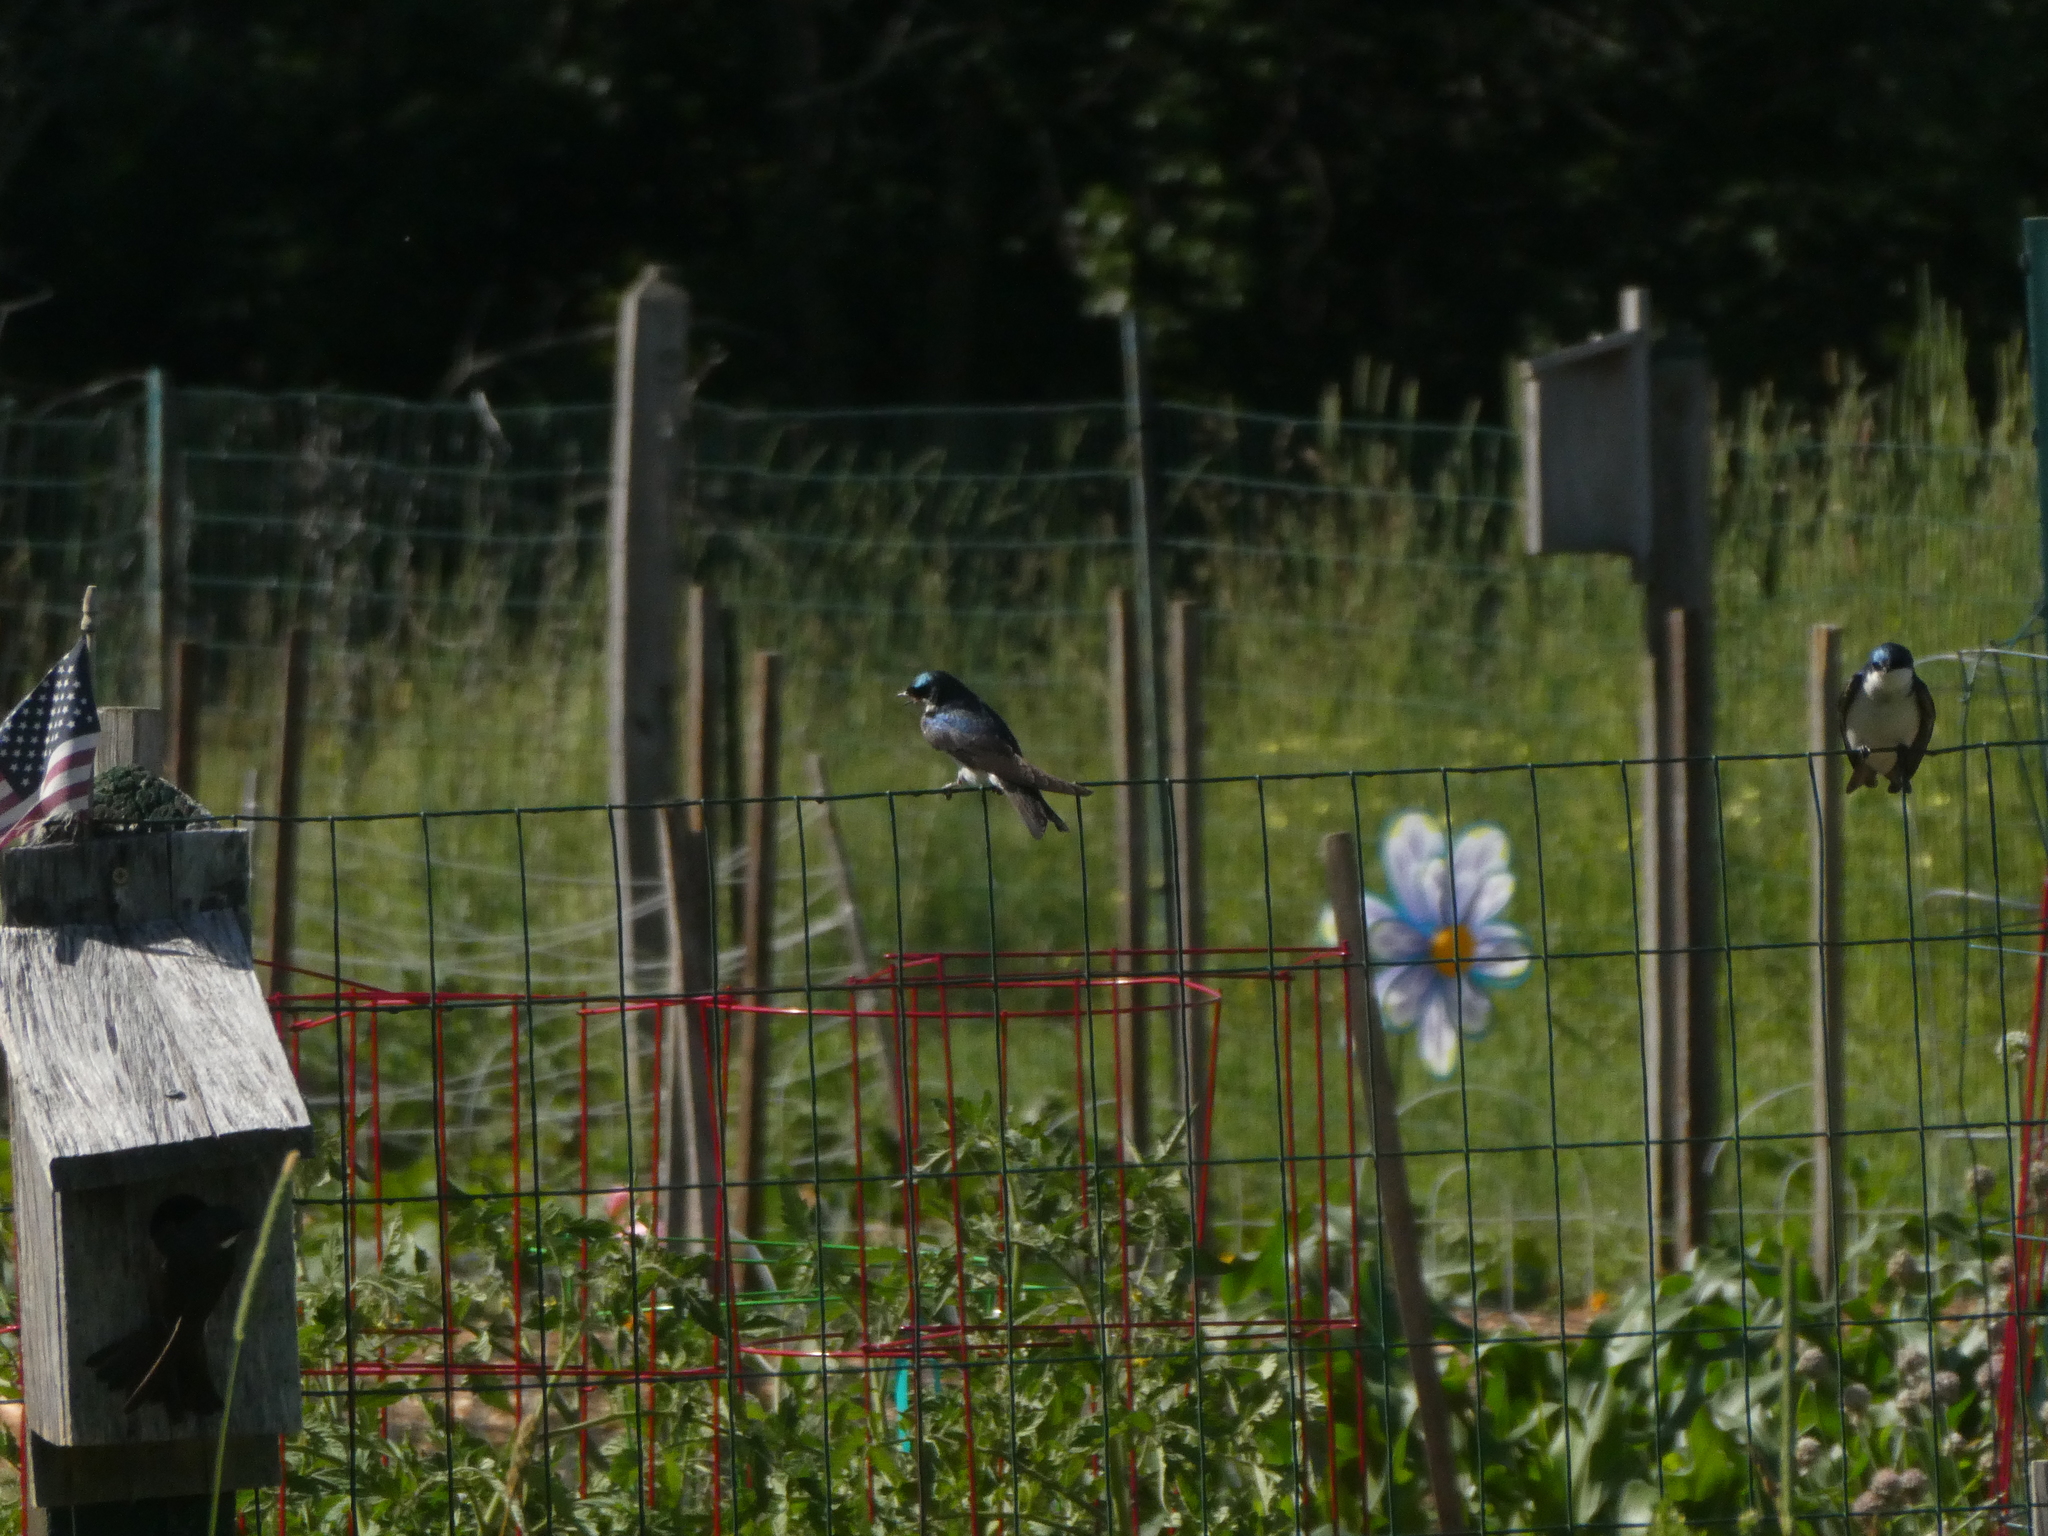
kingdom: Animalia
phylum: Chordata
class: Aves
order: Passeriformes
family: Hirundinidae
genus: Tachycineta
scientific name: Tachycineta bicolor
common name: Tree swallow
